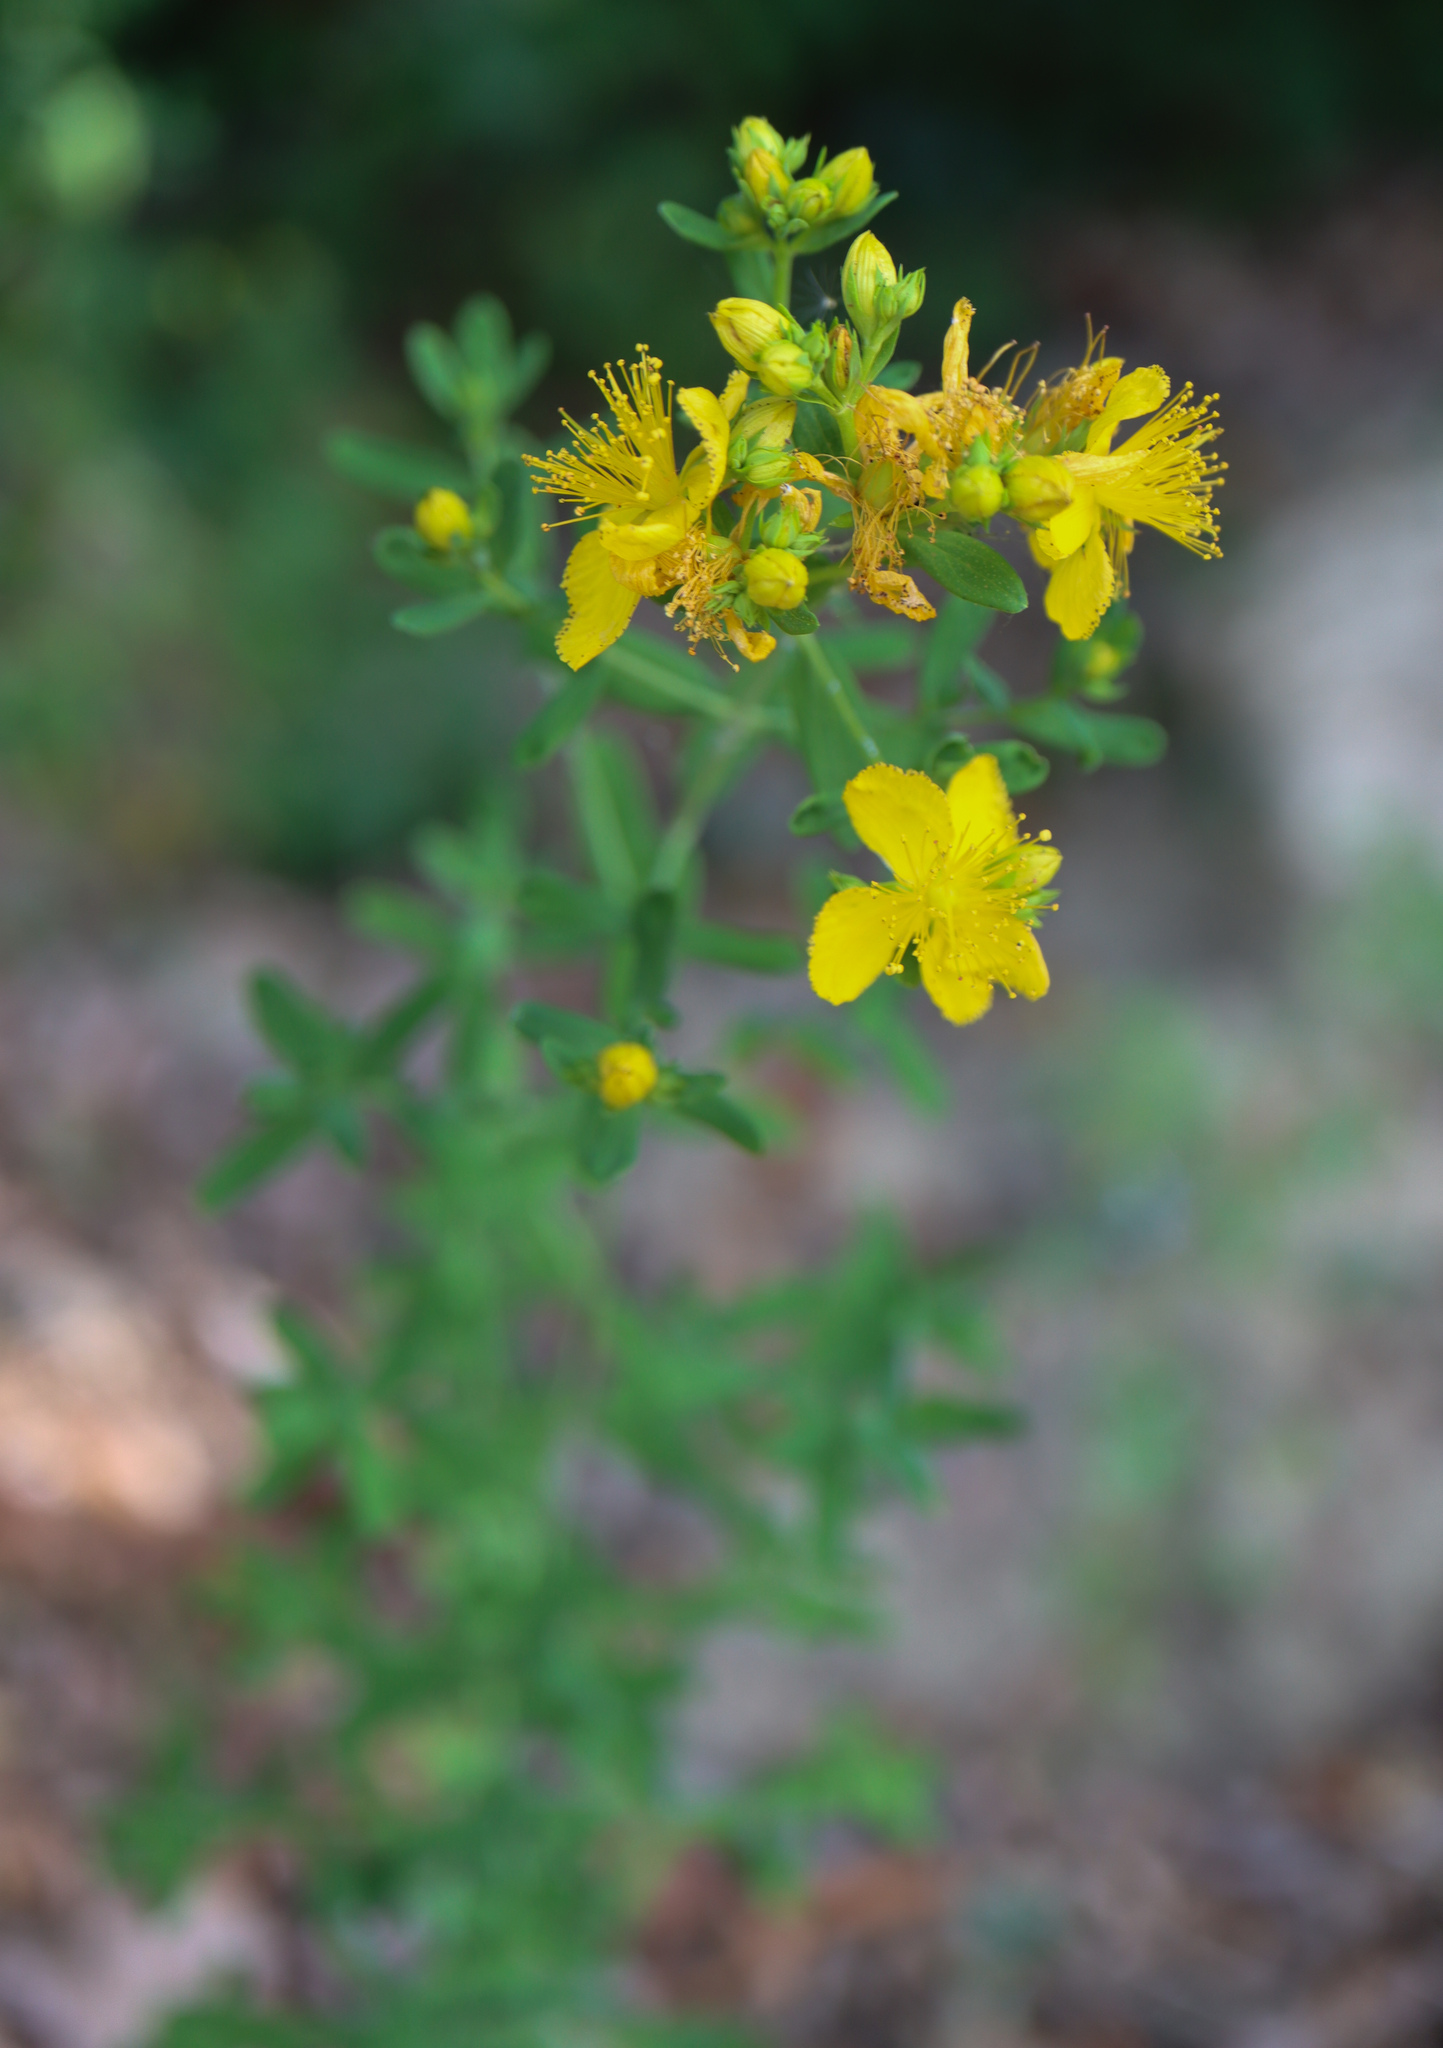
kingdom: Plantae
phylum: Tracheophyta
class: Magnoliopsida
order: Malpighiales
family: Hypericaceae
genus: Hypericum
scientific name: Hypericum perforatum
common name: Common st. johnswort
